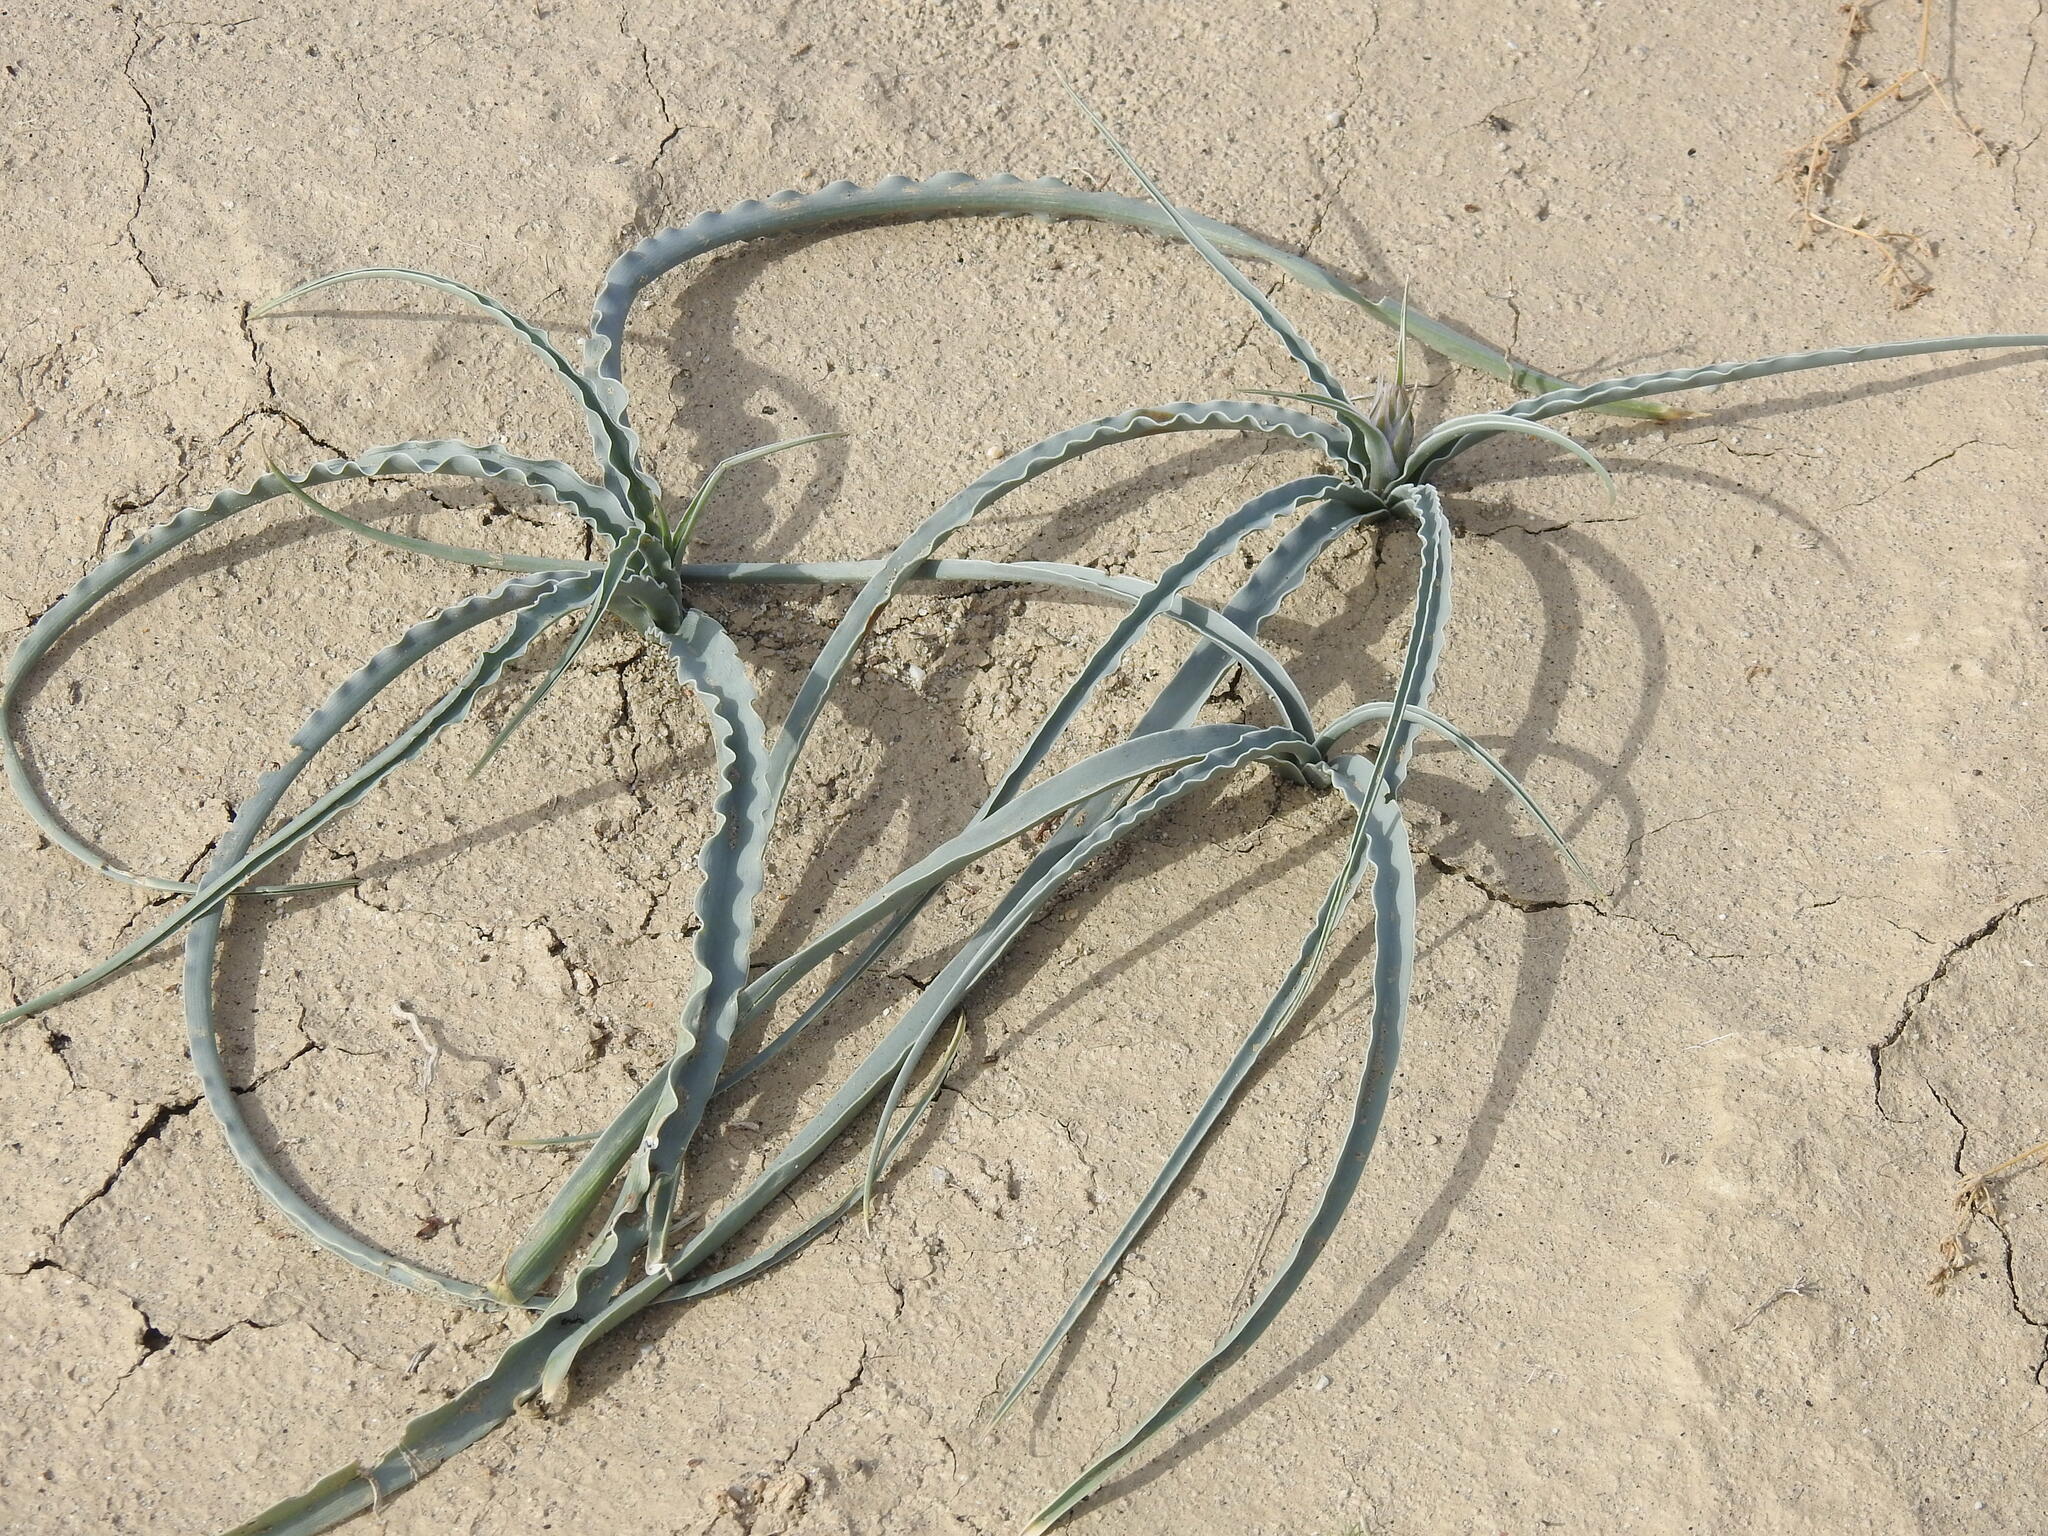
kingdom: Plantae
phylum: Tracheophyta
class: Liliopsida
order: Asparagales
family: Asparagaceae
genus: Hesperocallis
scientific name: Hesperocallis undulata
